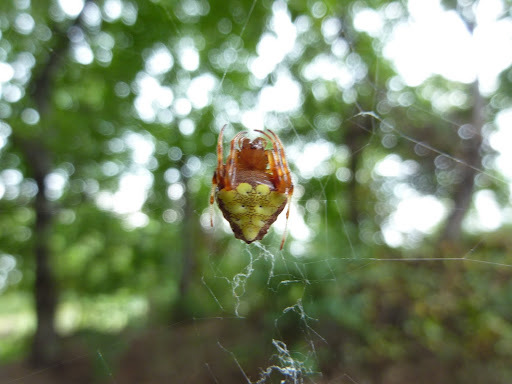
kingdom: Animalia
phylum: Arthropoda
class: Arachnida
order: Araneae
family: Araneidae
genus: Verrucosa
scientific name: Verrucosa arenata
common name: Orb weavers
